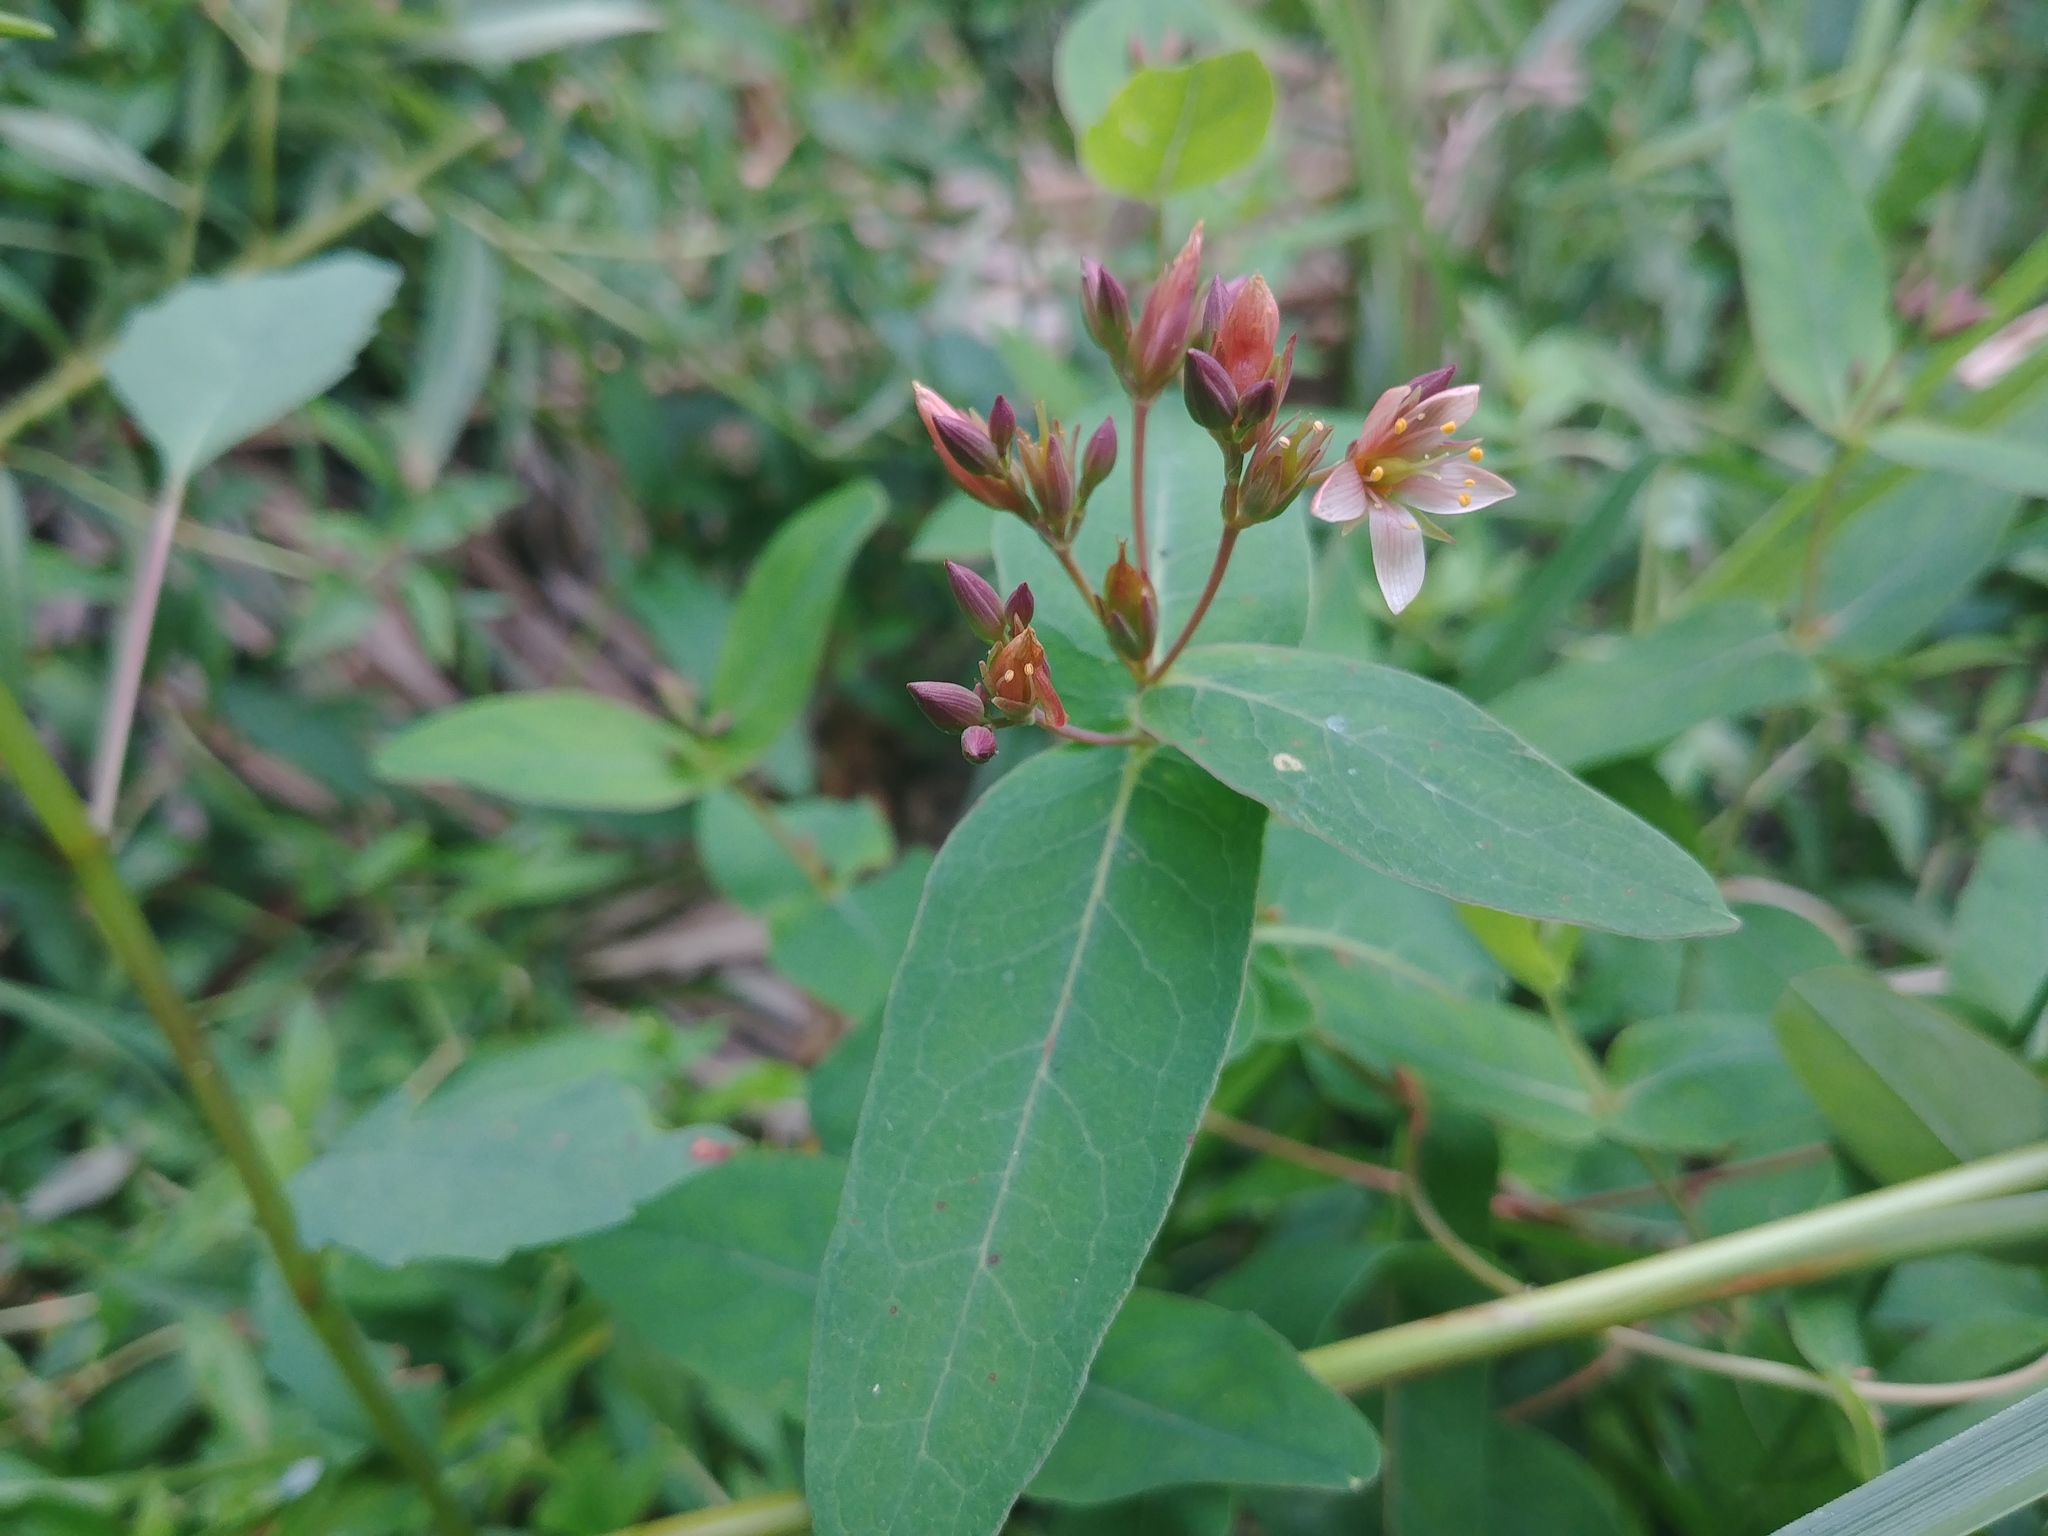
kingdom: Plantae
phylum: Tracheophyta
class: Magnoliopsida
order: Malpighiales
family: Hypericaceae
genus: Triadenum
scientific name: Triadenum virginicum
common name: Marsh st. john's-wort
